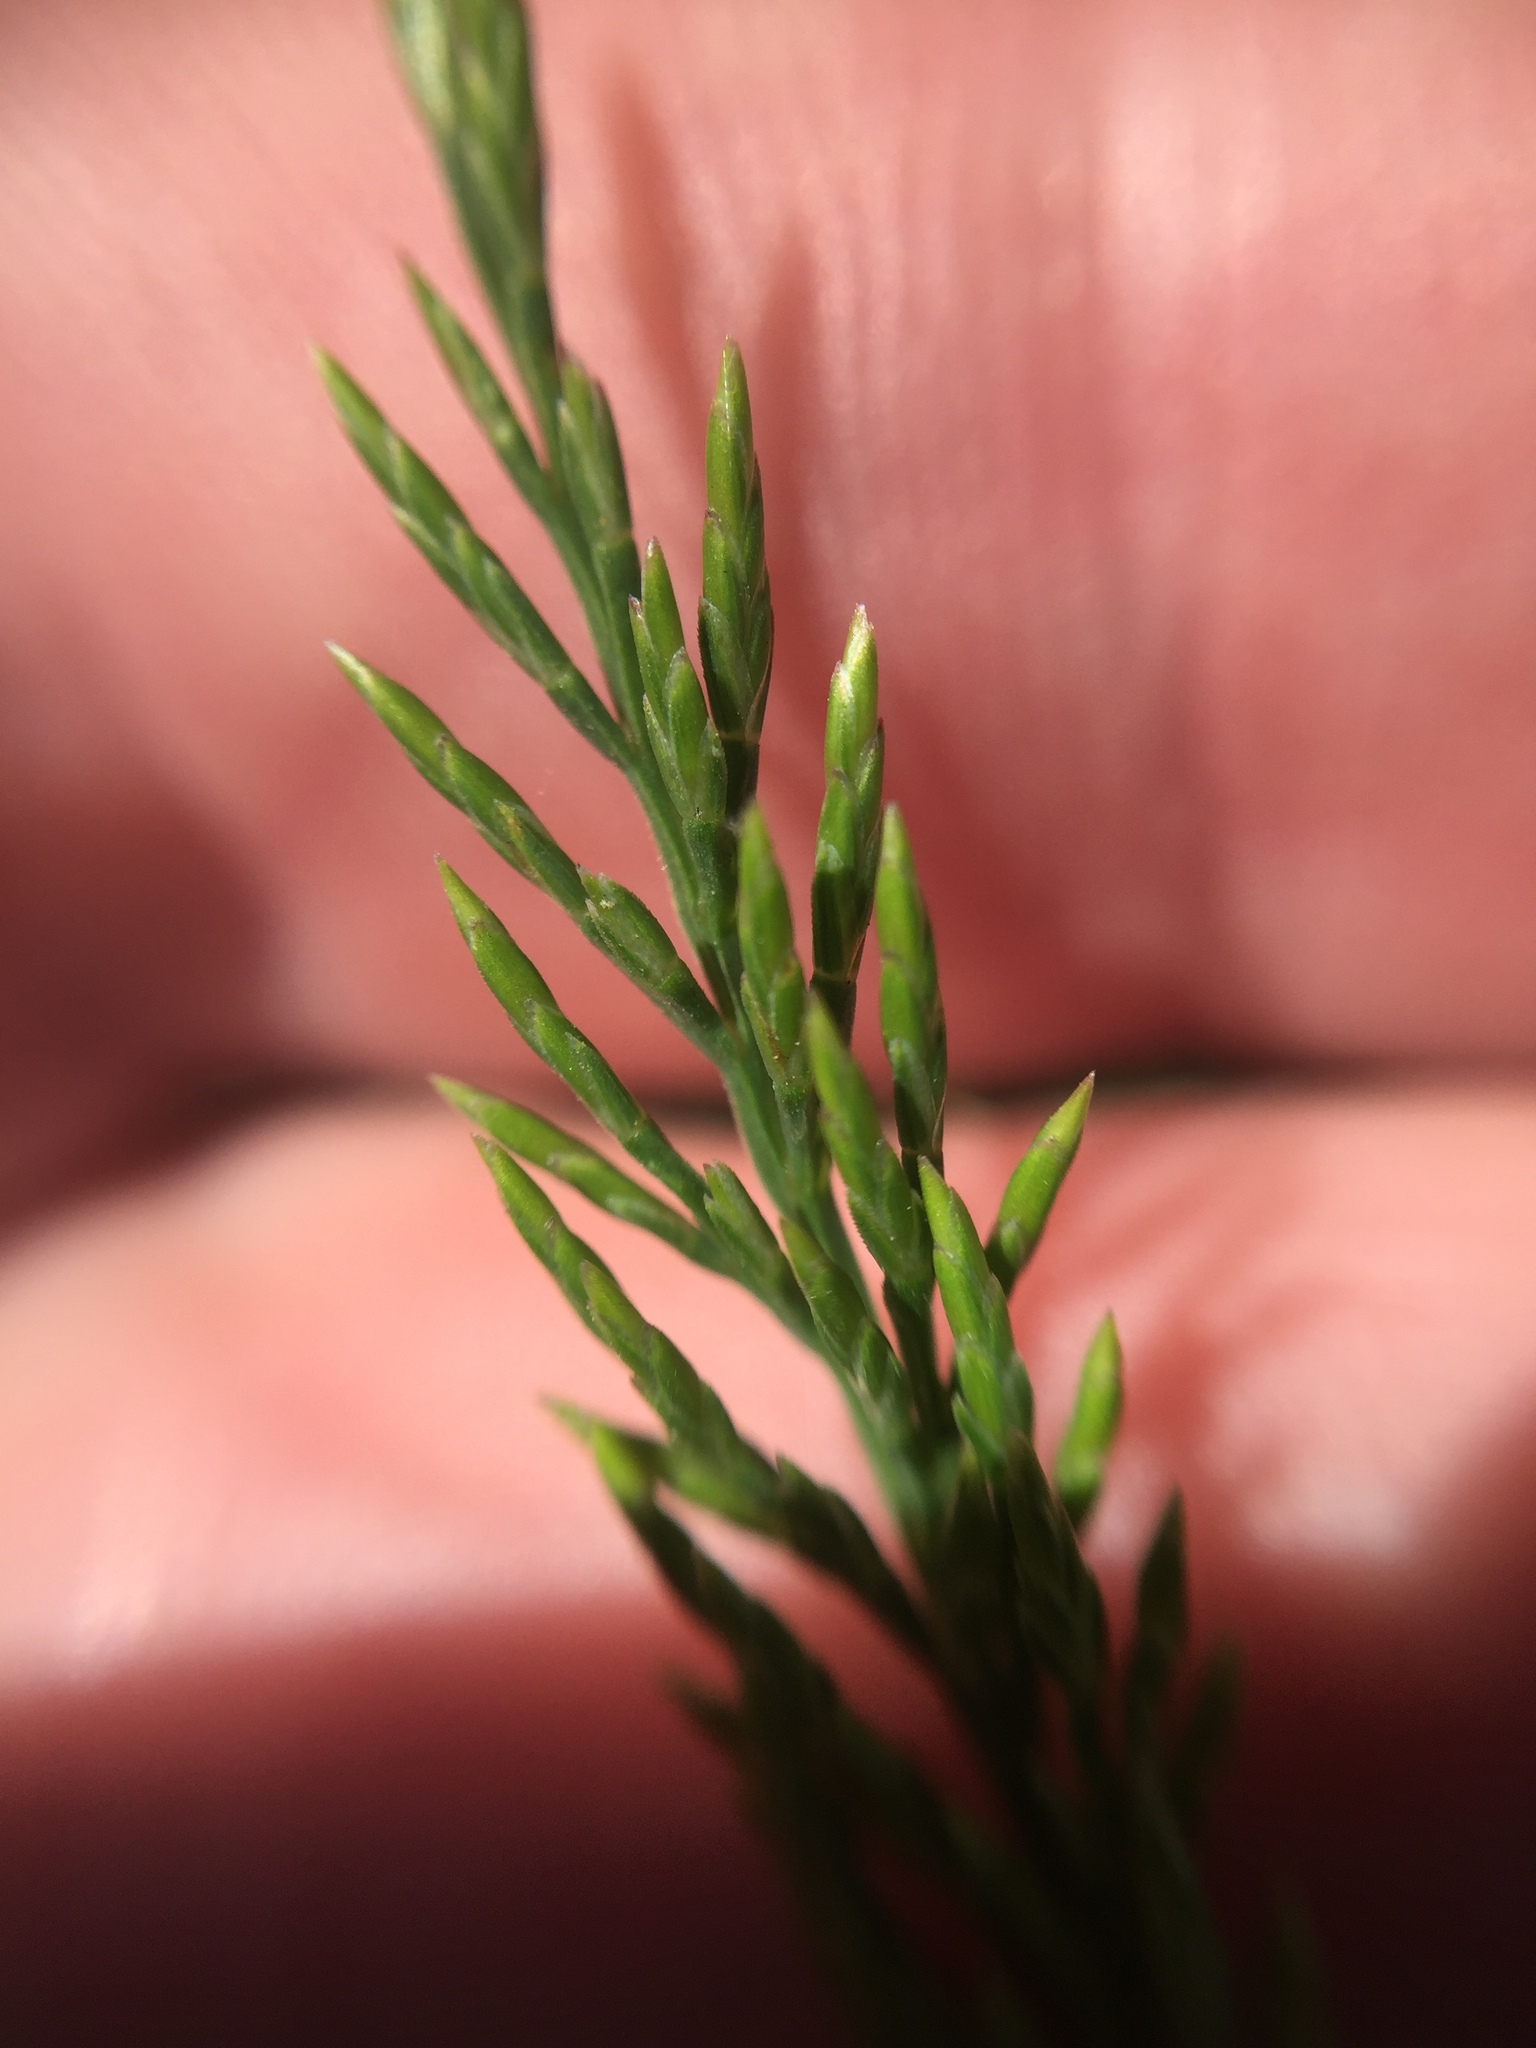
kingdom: Plantae
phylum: Tracheophyta
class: Liliopsida
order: Poales
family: Poaceae
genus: Catapodium
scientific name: Catapodium rigidum
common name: Fern-grass
